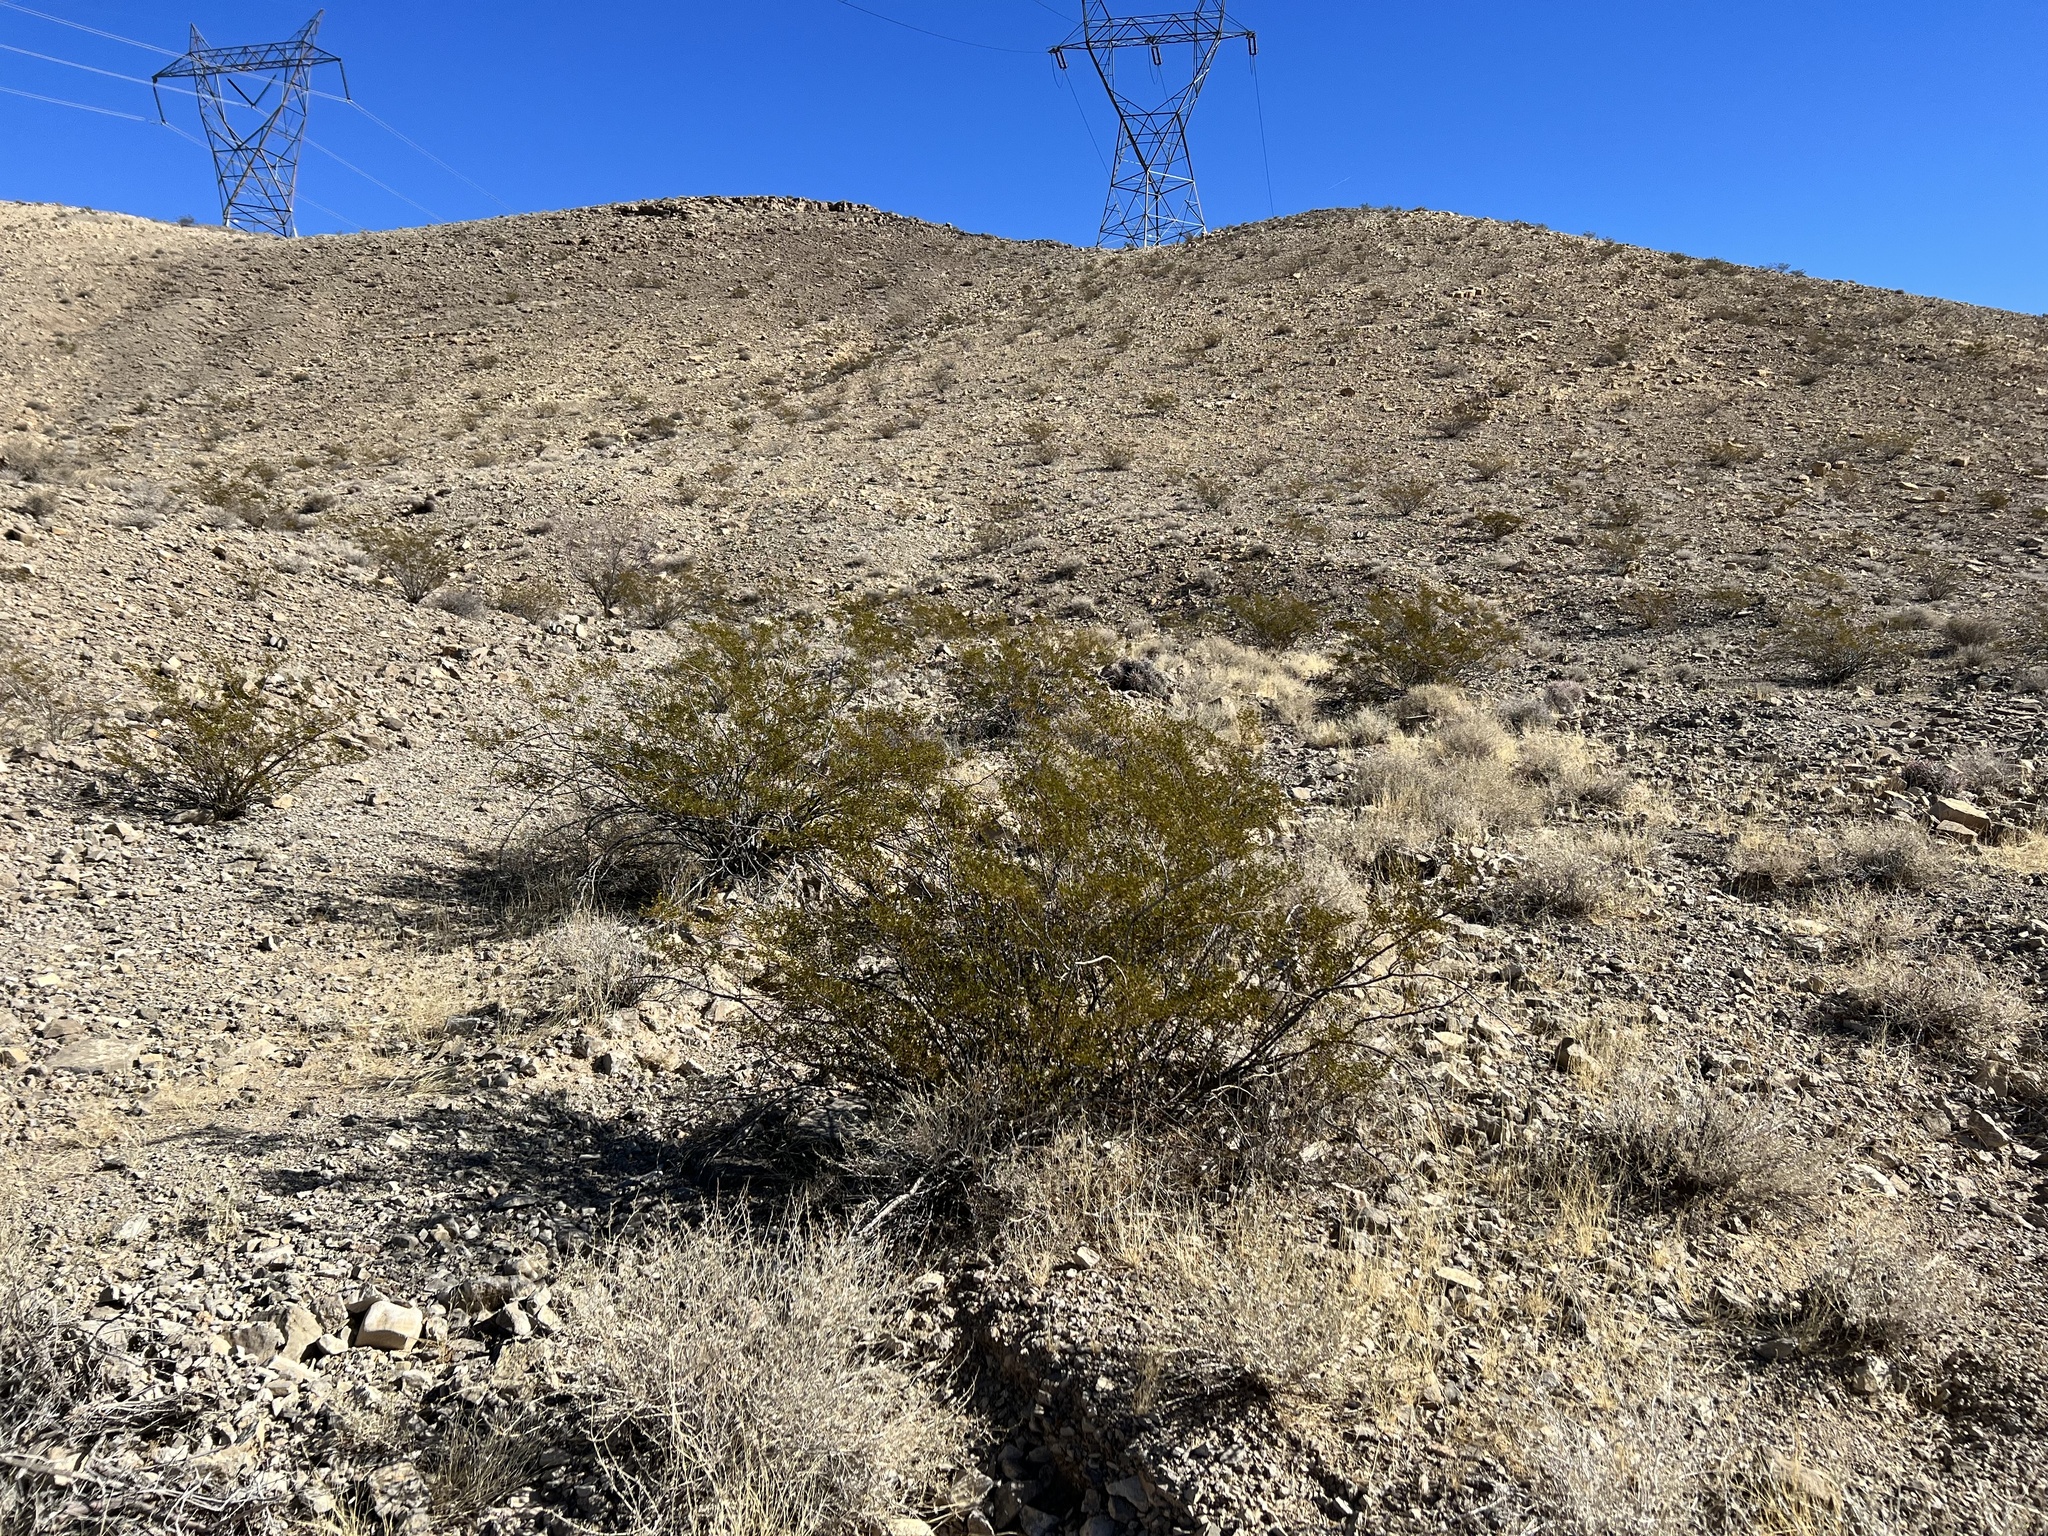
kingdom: Plantae
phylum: Tracheophyta
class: Magnoliopsida
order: Zygophyllales
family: Zygophyllaceae
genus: Larrea
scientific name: Larrea tridentata
